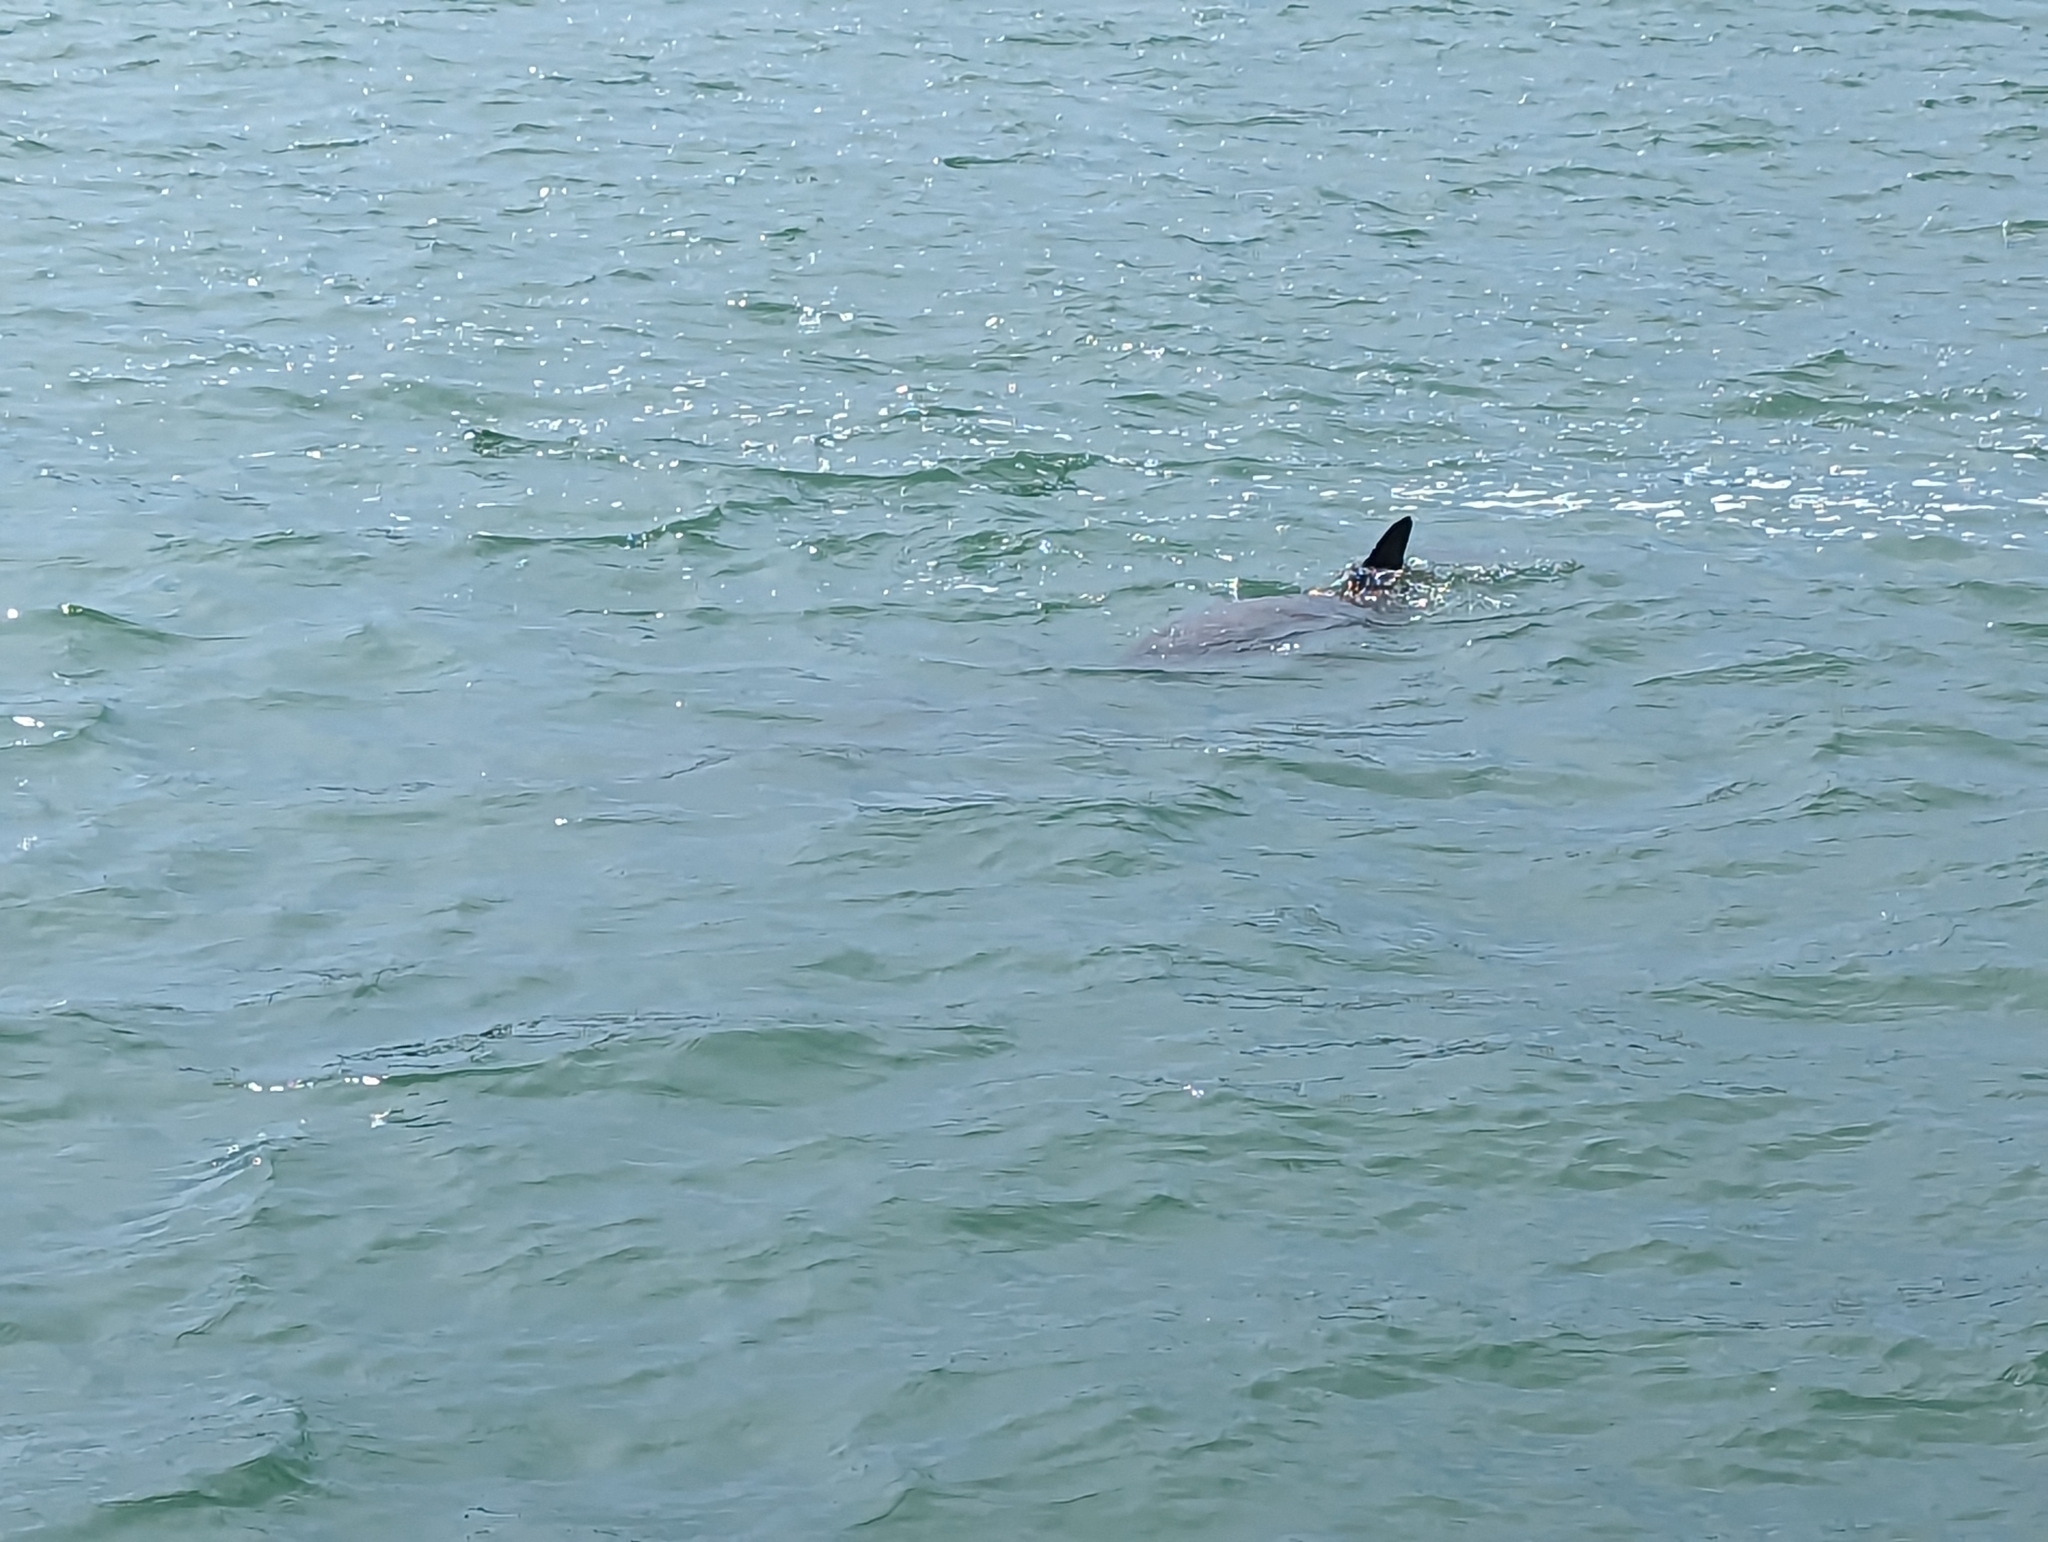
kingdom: Animalia
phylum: Chordata
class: Mammalia
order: Cetacea
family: Delphinidae
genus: Tursiops
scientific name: Tursiops truncatus
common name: Bottlenose dolphin
